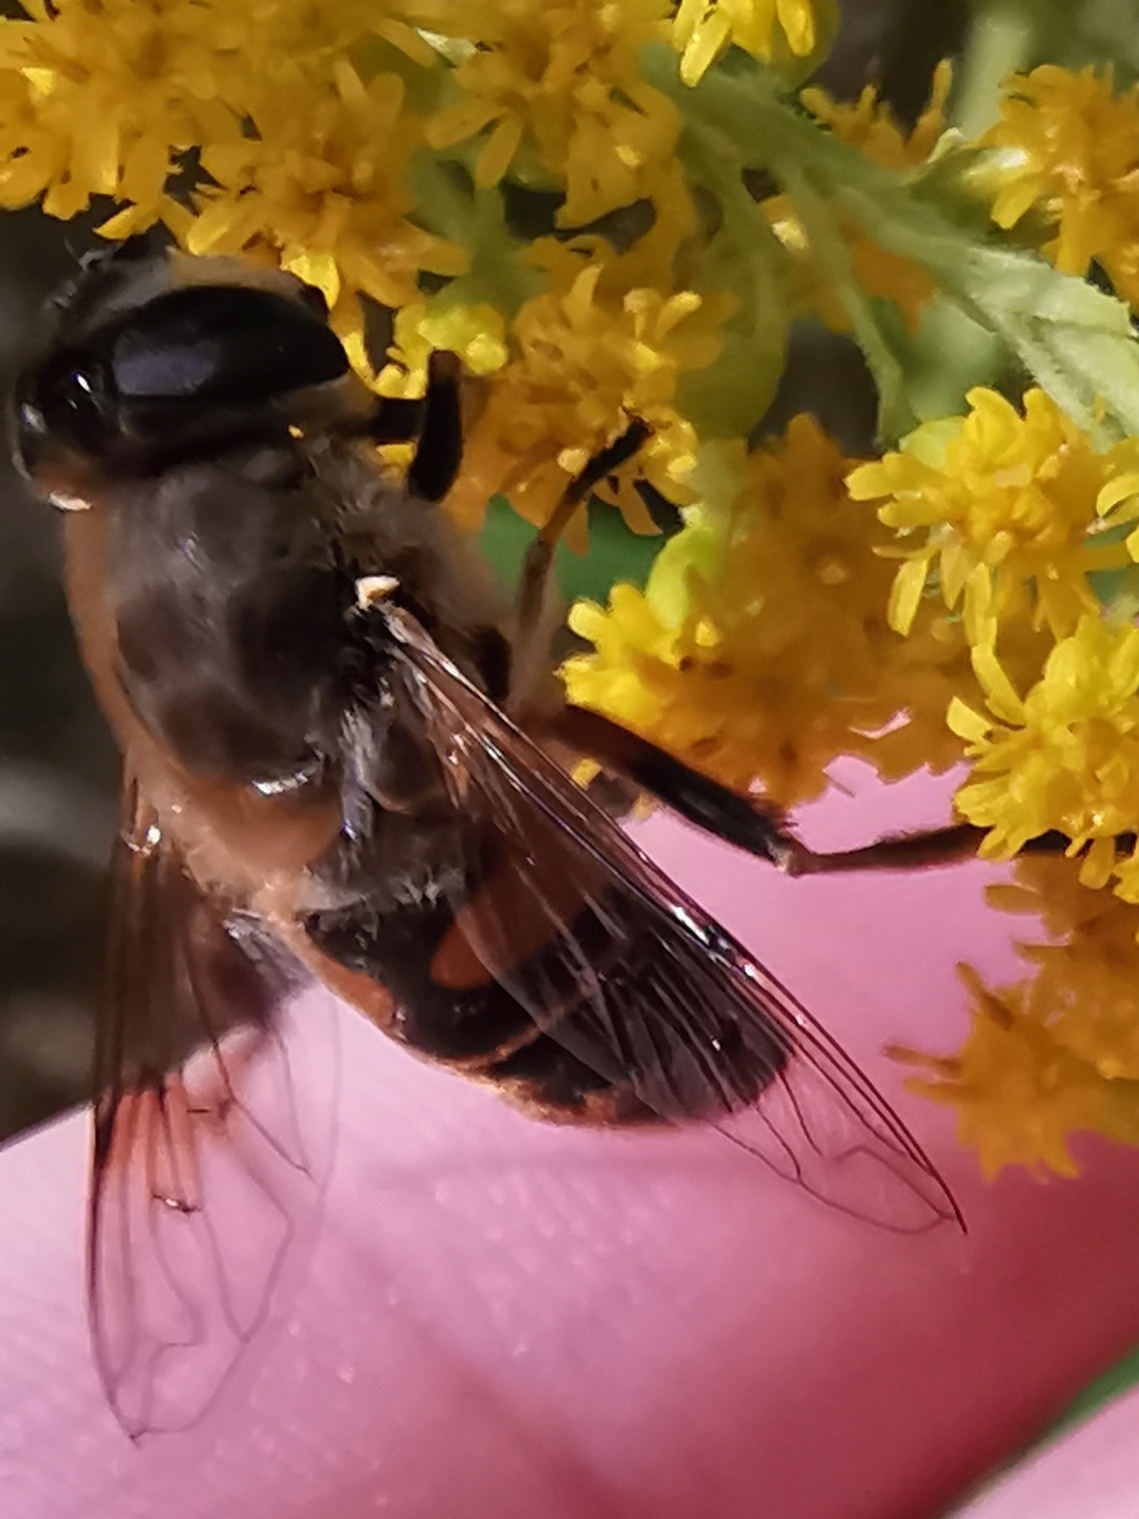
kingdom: Animalia
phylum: Arthropoda
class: Insecta
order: Diptera
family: Syrphidae
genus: Eristalis
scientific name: Eristalis tenax
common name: Drone fly
